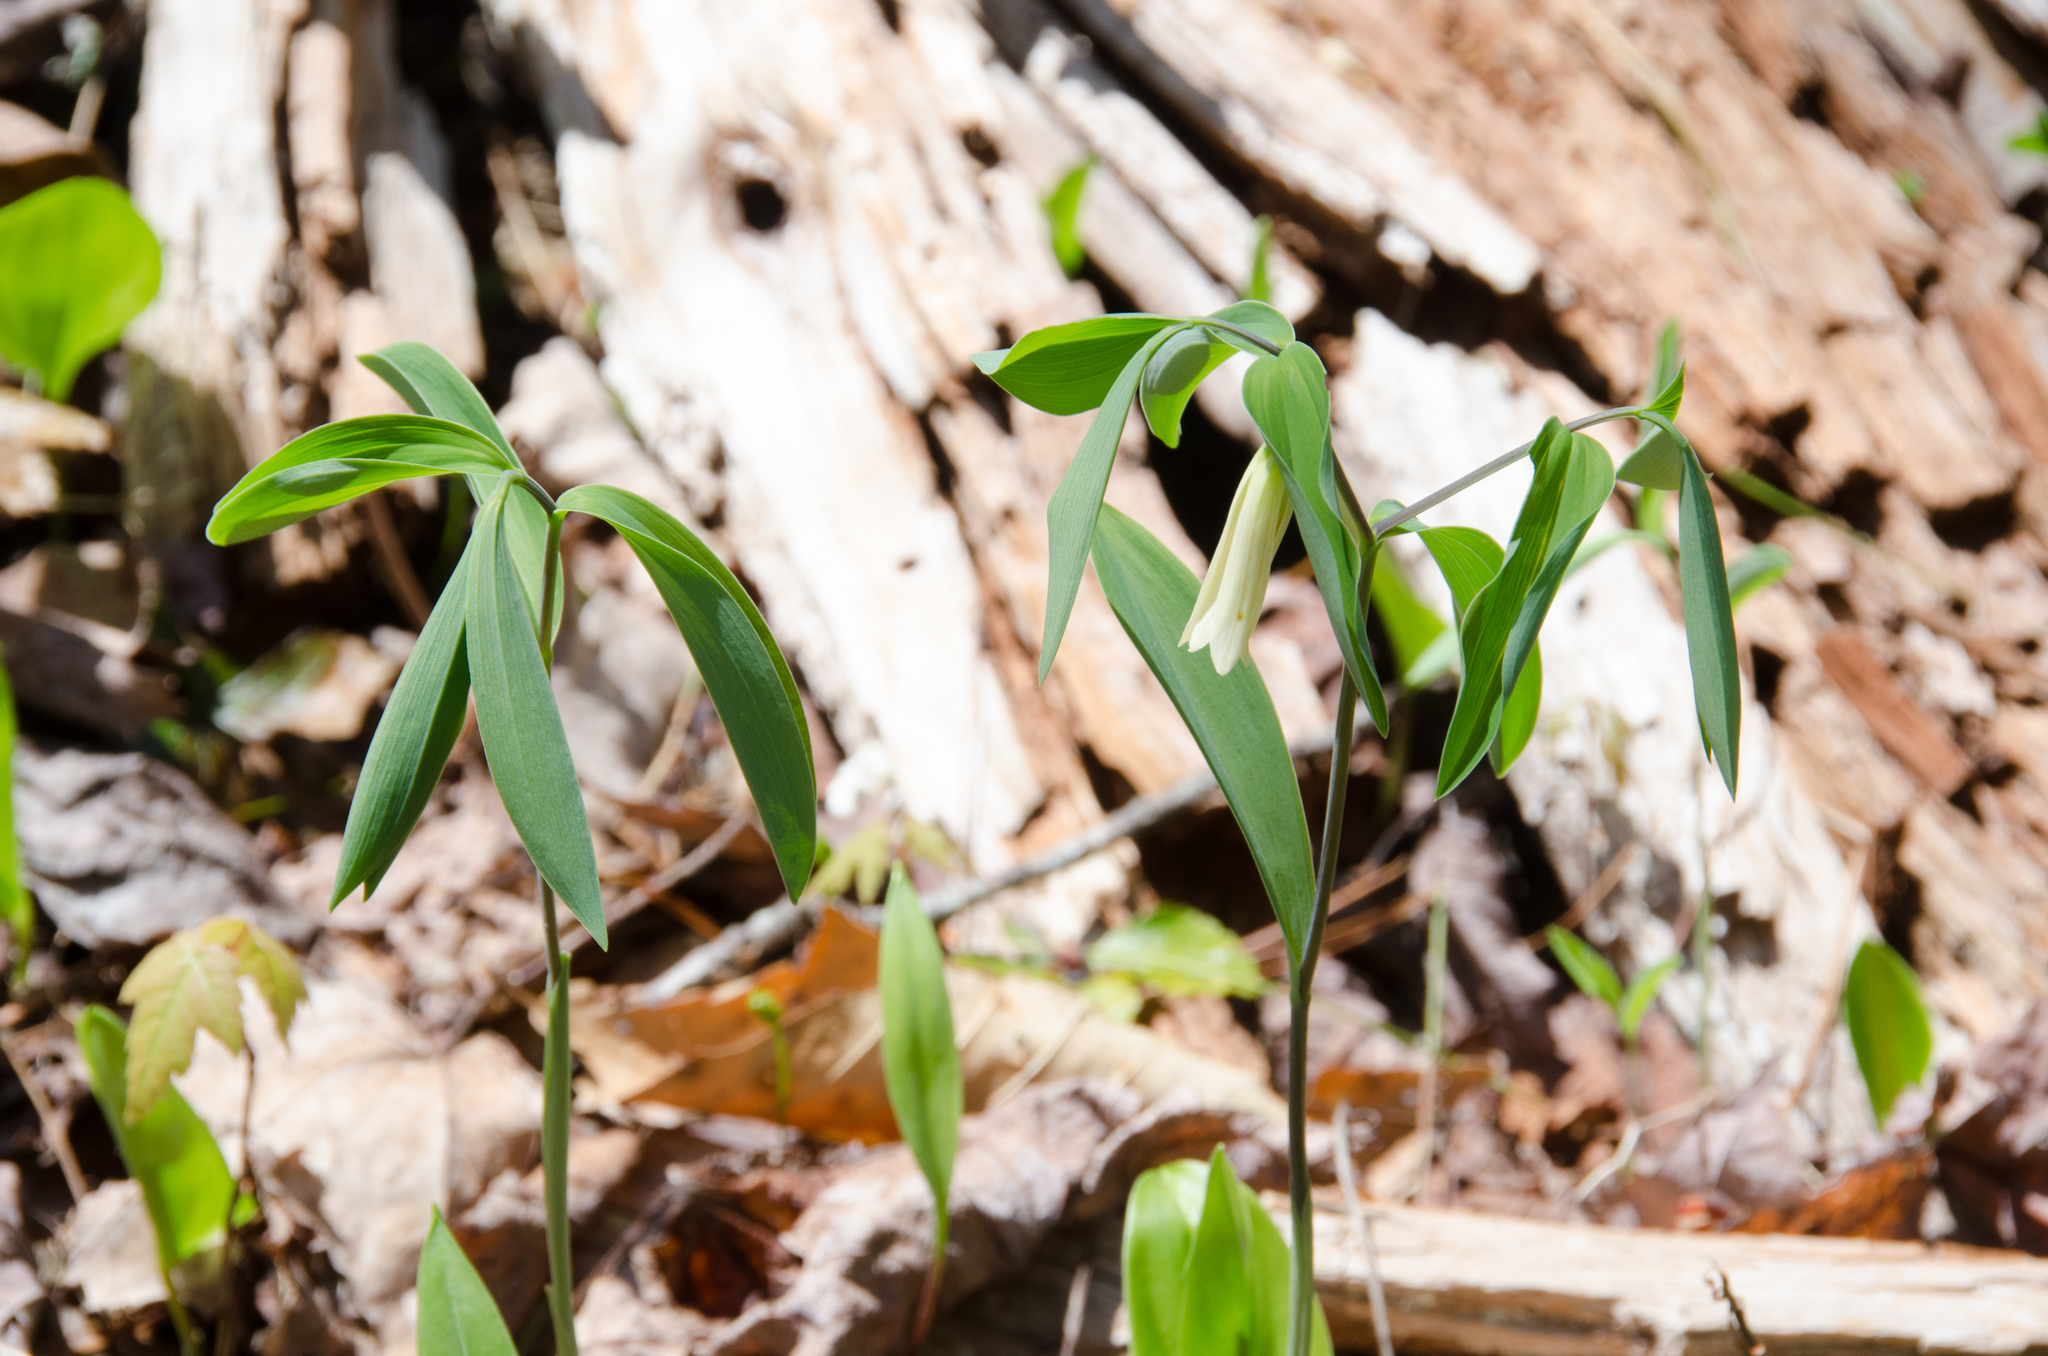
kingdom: Plantae
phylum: Tracheophyta
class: Liliopsida
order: Liliales
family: Colchicaceae
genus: Uvularia
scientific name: Uvularia sessilifolia
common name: Straw-lily
